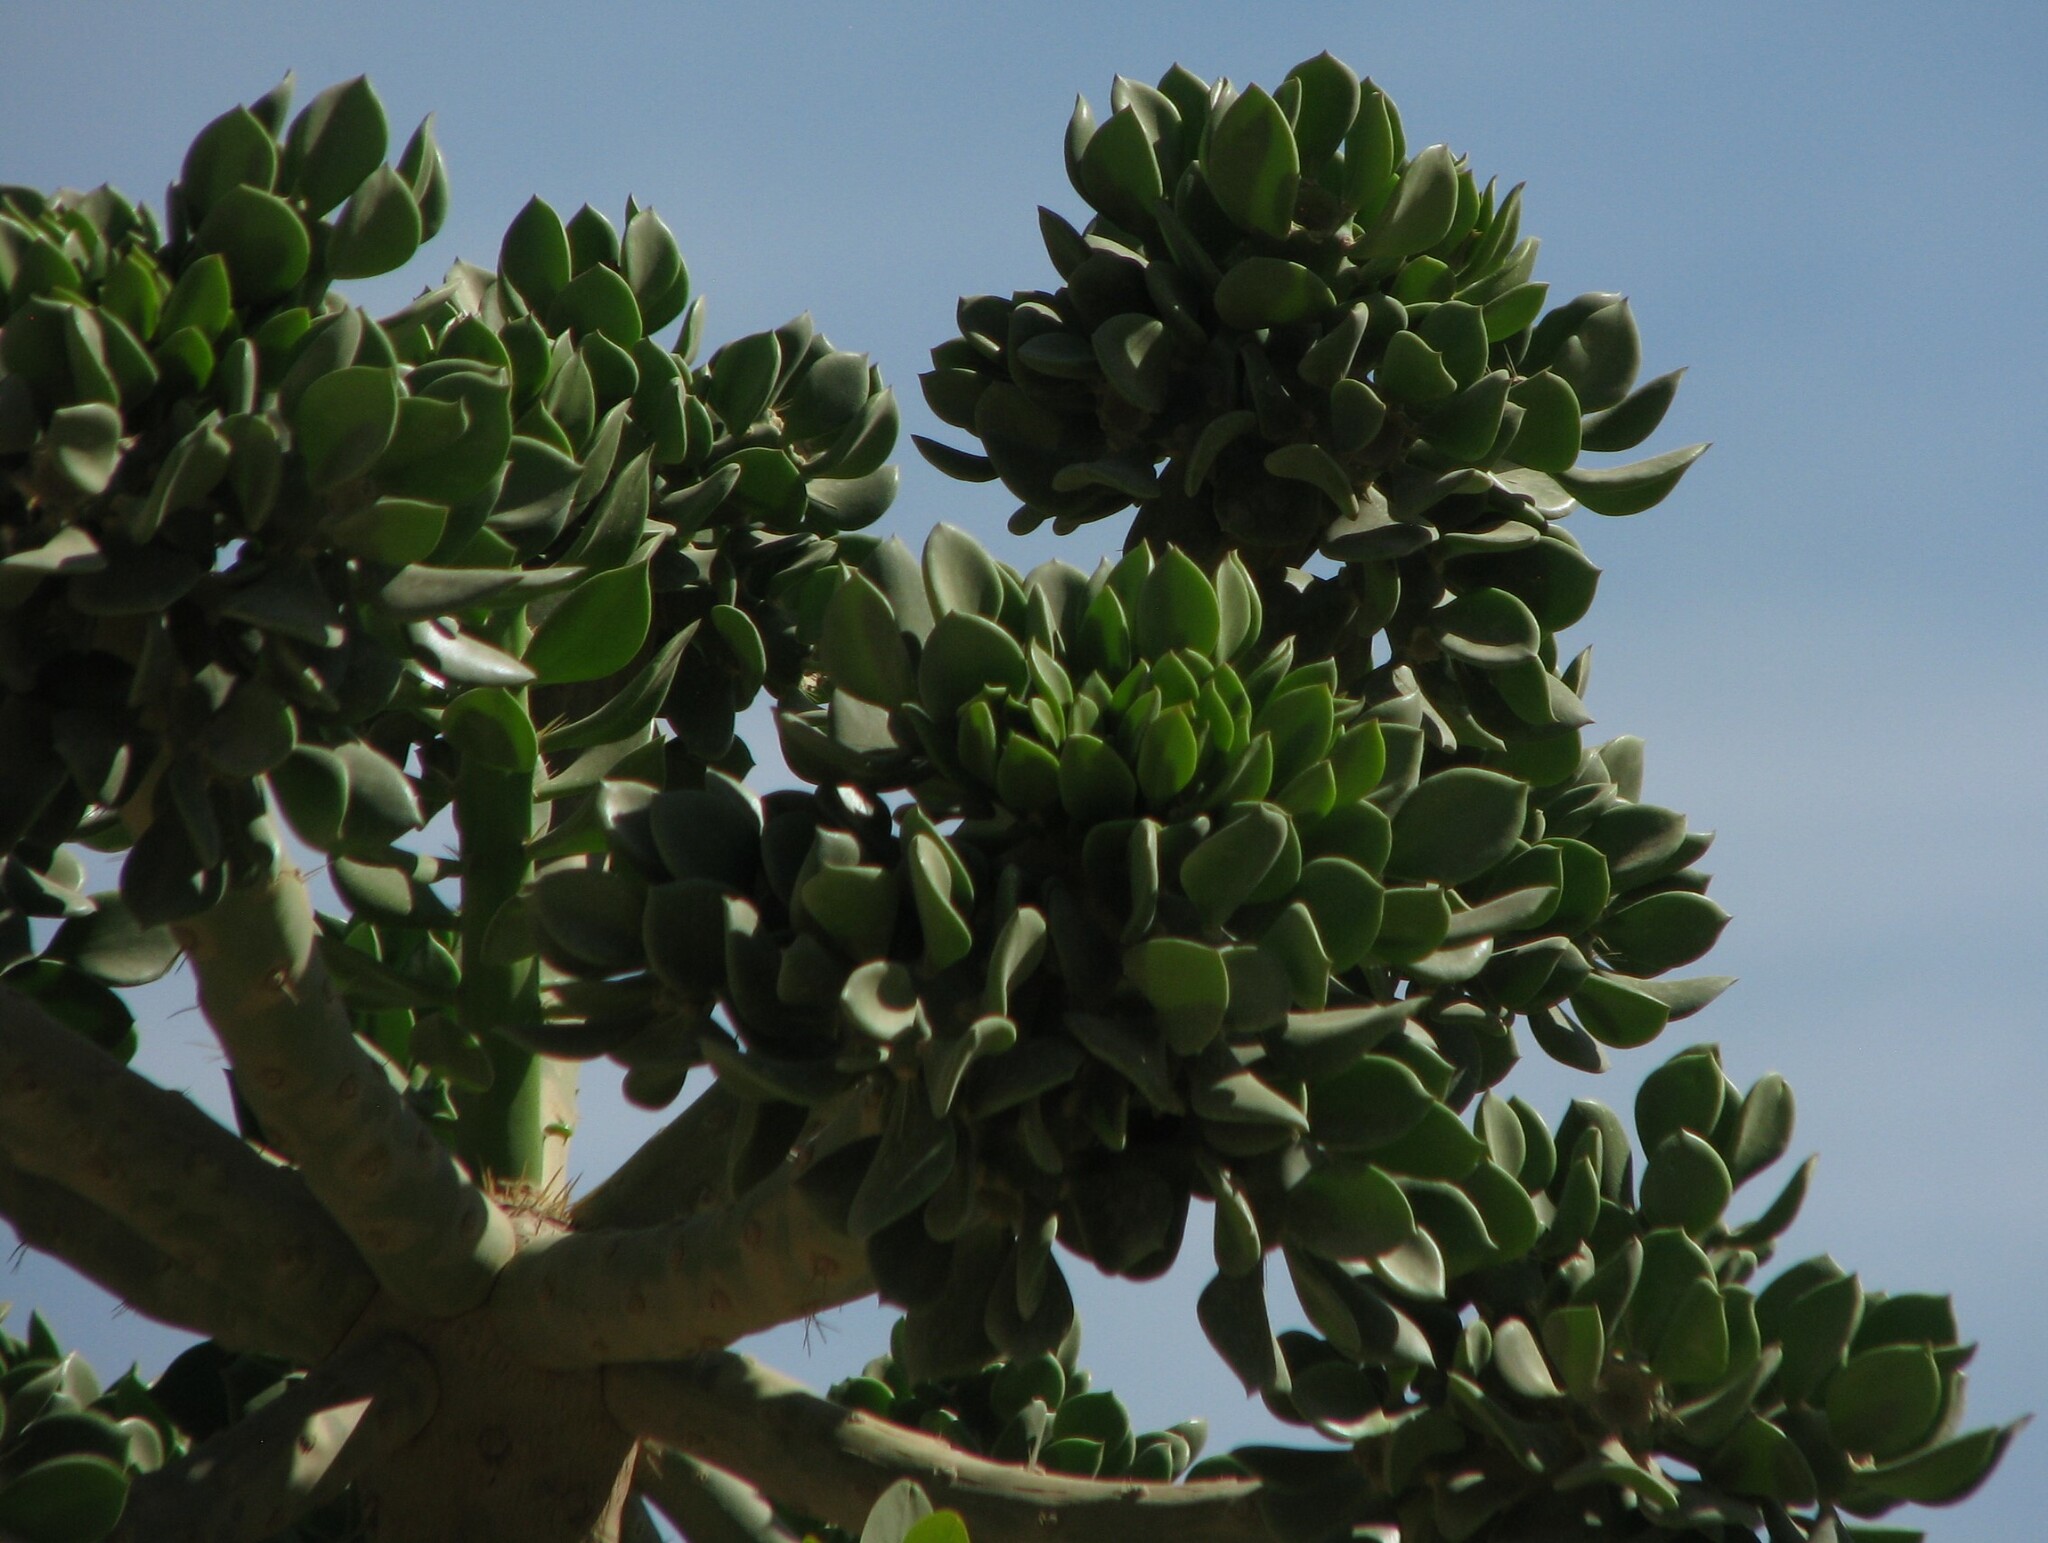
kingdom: Plantae
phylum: Tracheophyta
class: Magnoliopsida
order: Caryophyllales
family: Cactaceae
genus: Quiabentia
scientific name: Quiabentia verticillata
